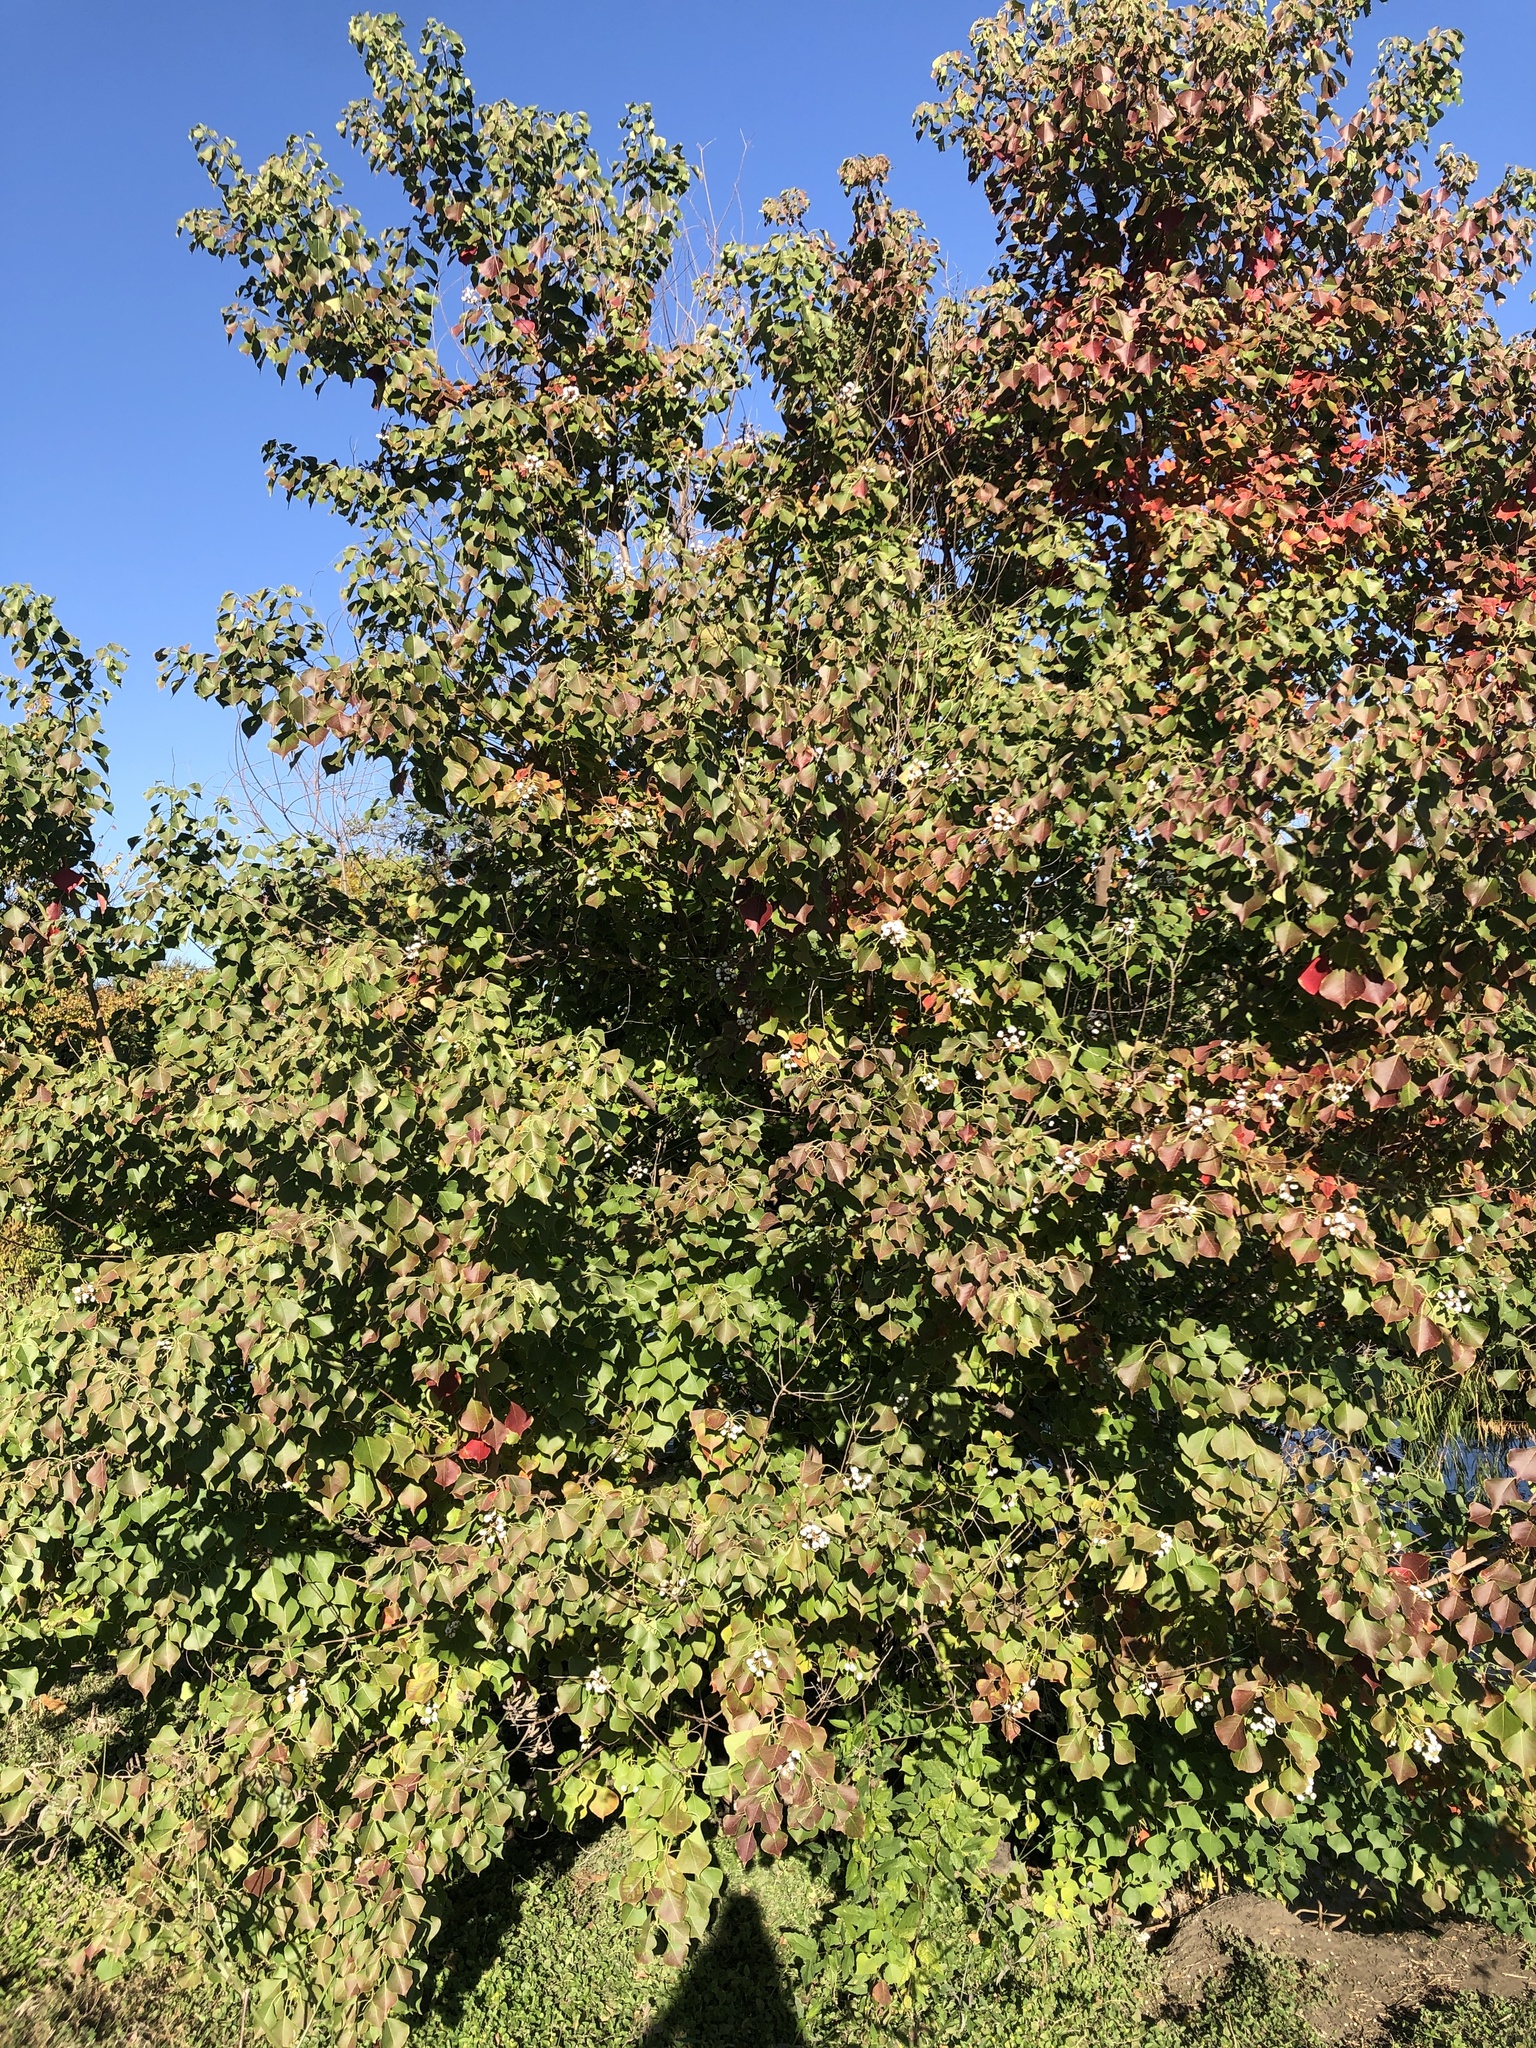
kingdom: Plantae
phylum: Tracheophyta
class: Magnoliopsida
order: Malpighiales
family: Euphorbiaceae
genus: Triadica
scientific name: Triadica sebifera
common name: Chinese tallow
